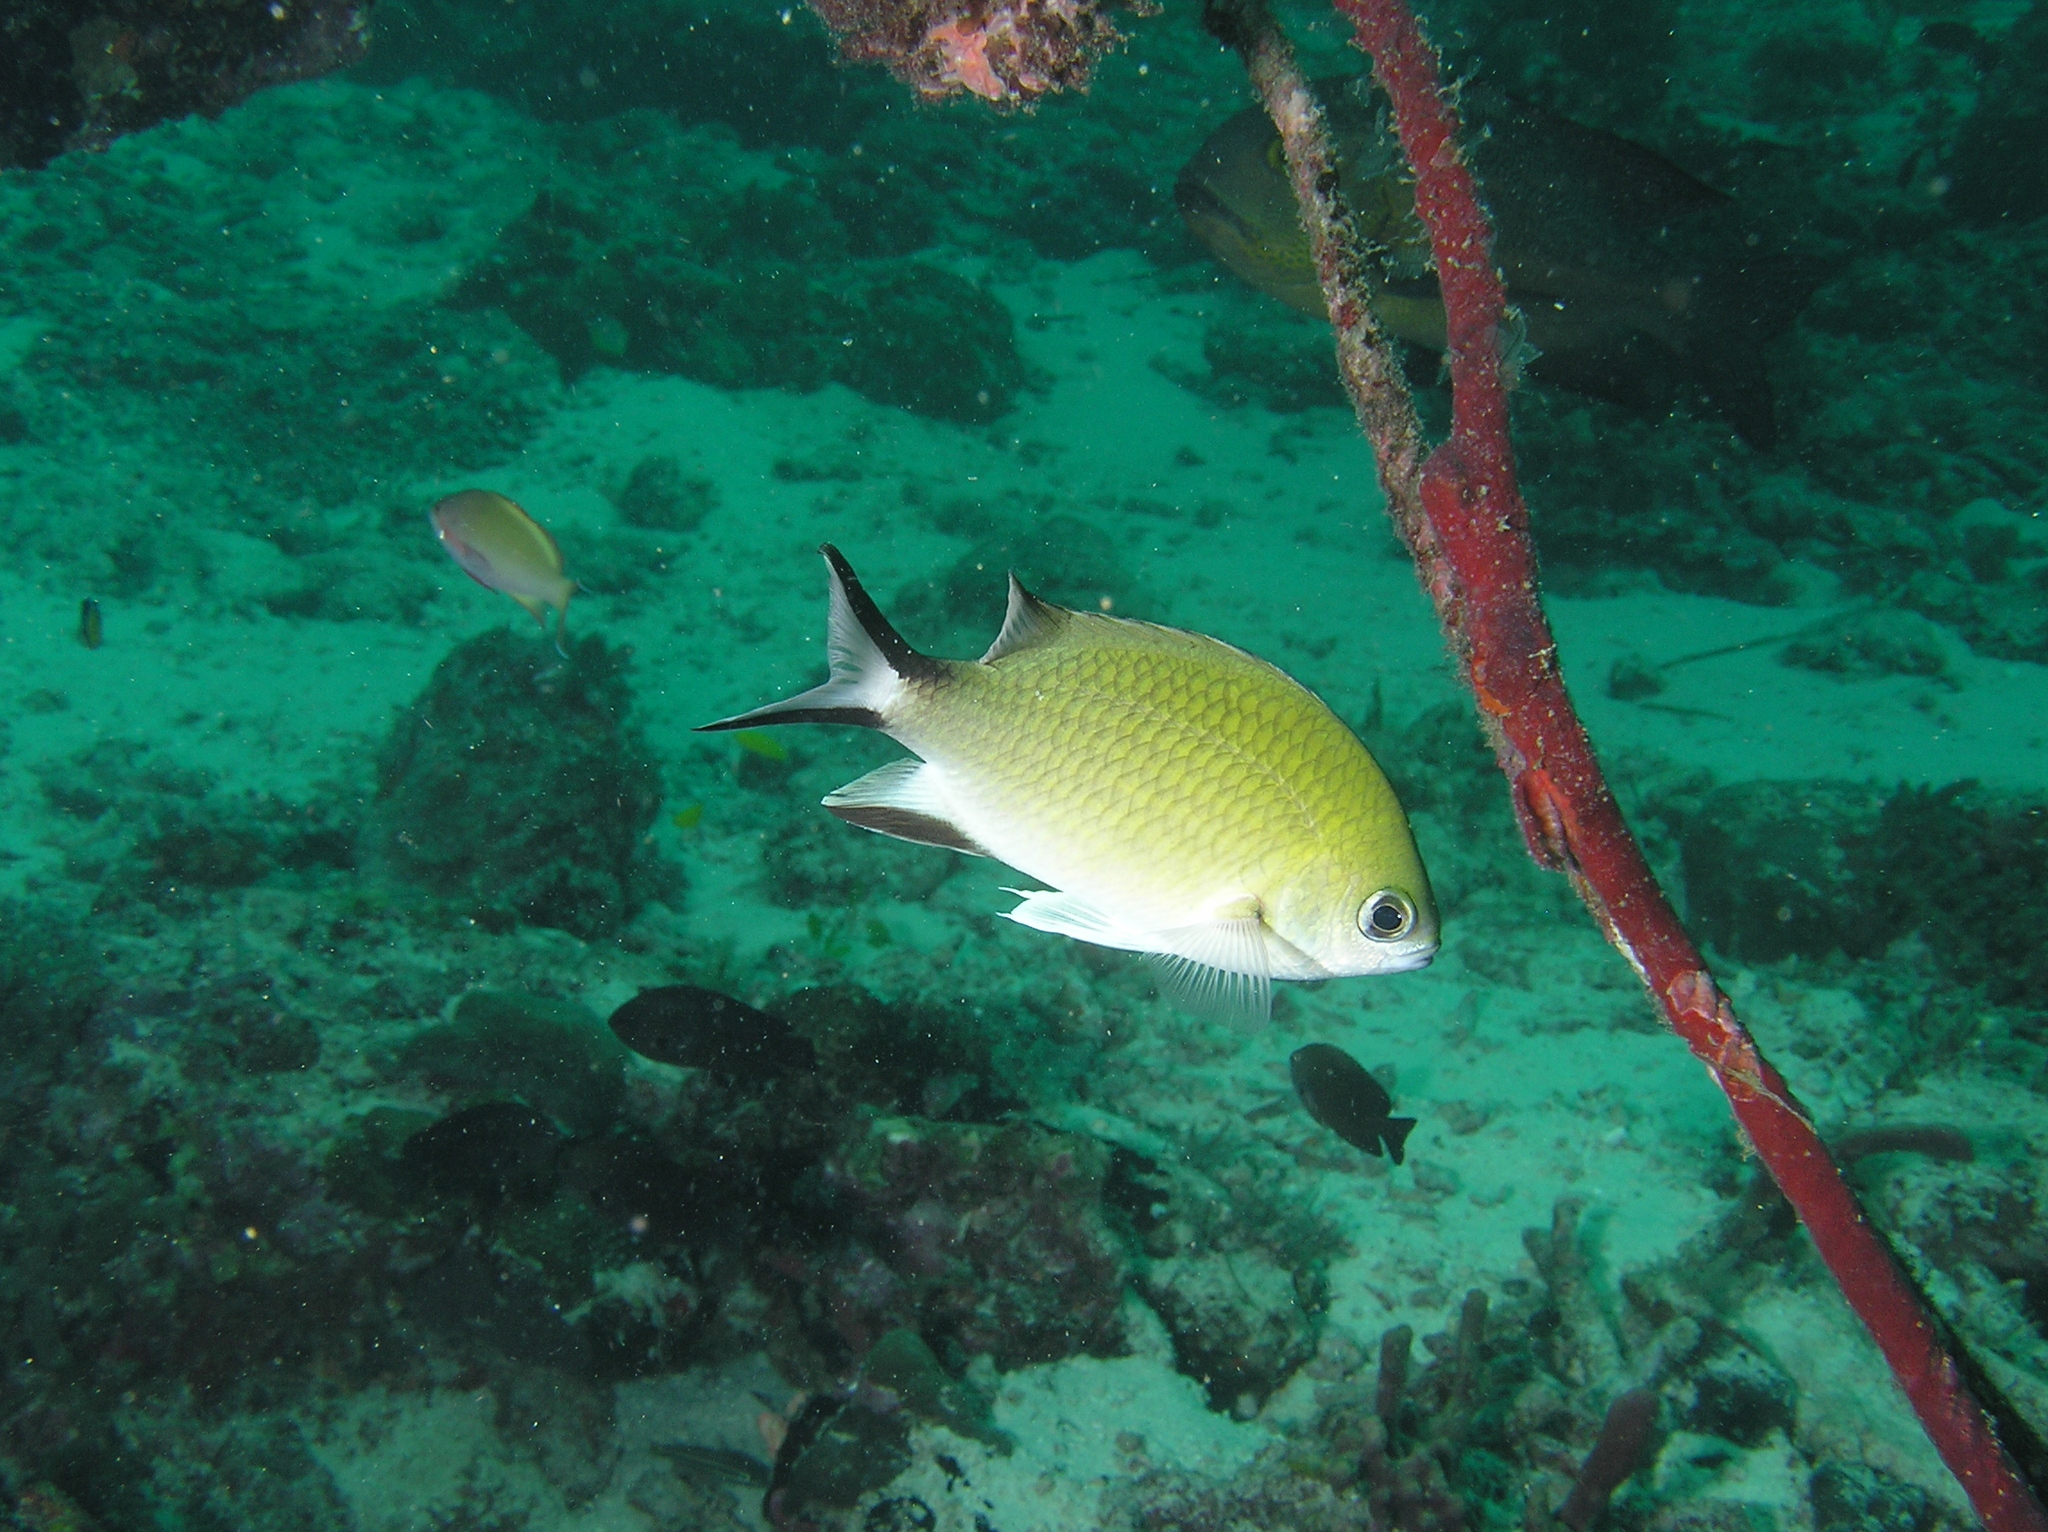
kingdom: Animalia
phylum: Chordata
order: Perciformes
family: Pomacentridae
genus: Chromis
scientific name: Chromis scotochiloptera
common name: Philippines chromis
